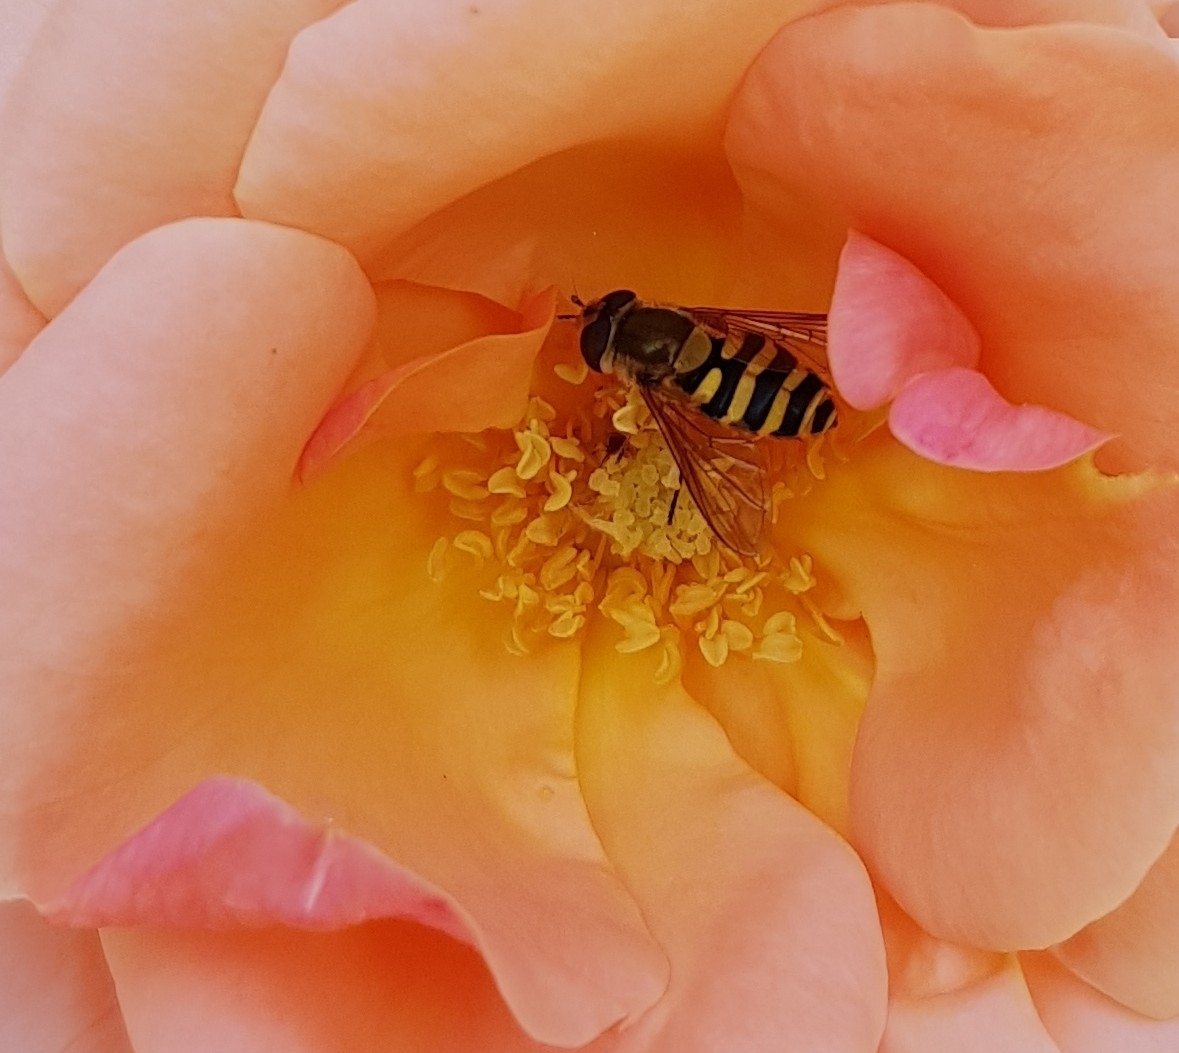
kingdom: Animalia
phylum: Arthropoda
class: Insecta
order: Diptera
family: Syrphidae
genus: Syrphus
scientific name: Syrphus
